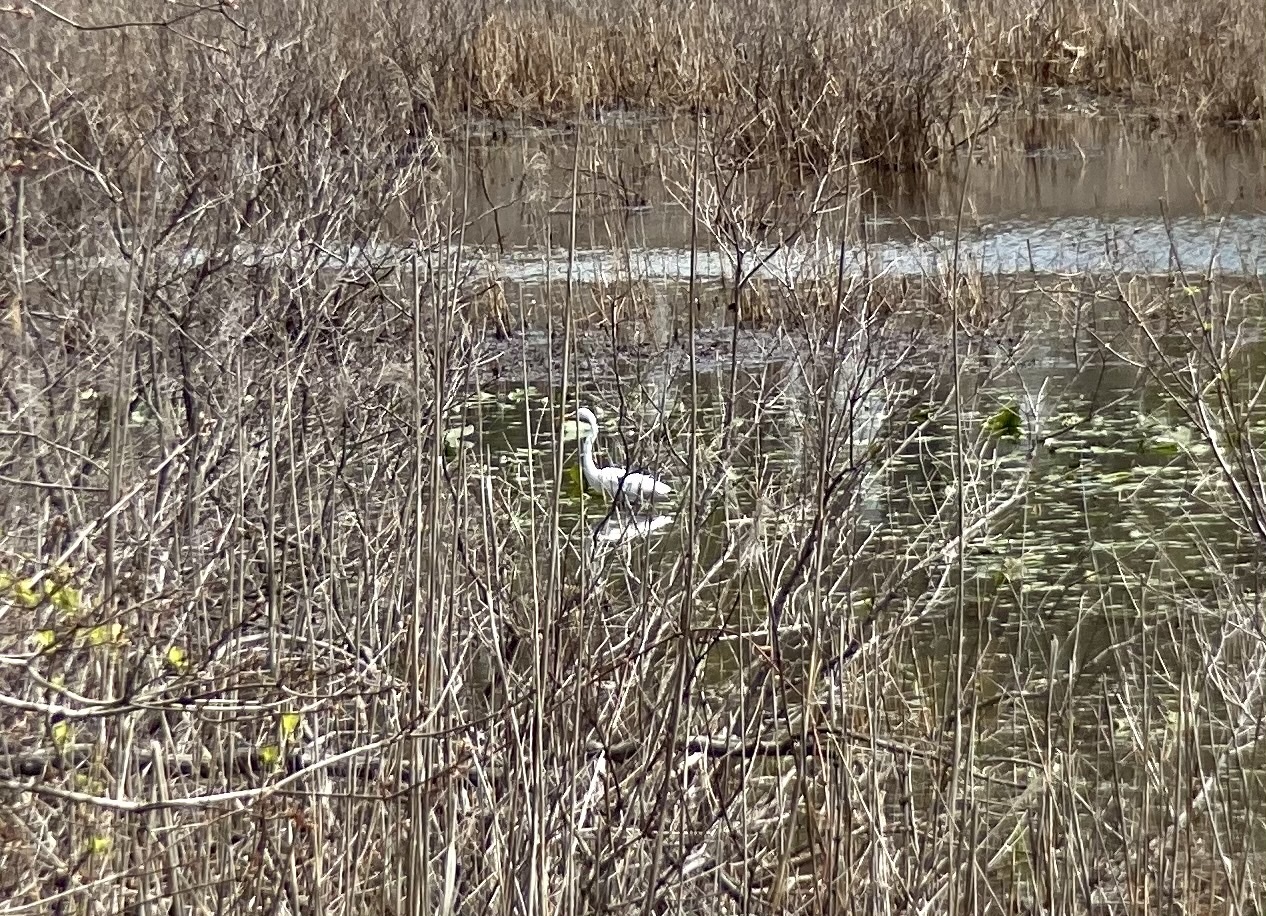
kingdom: Animalia
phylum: Chordata
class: Aves
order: Pelecaniformes
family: Ardeidae
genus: Ardea
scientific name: Ardea alba
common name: Great egret
